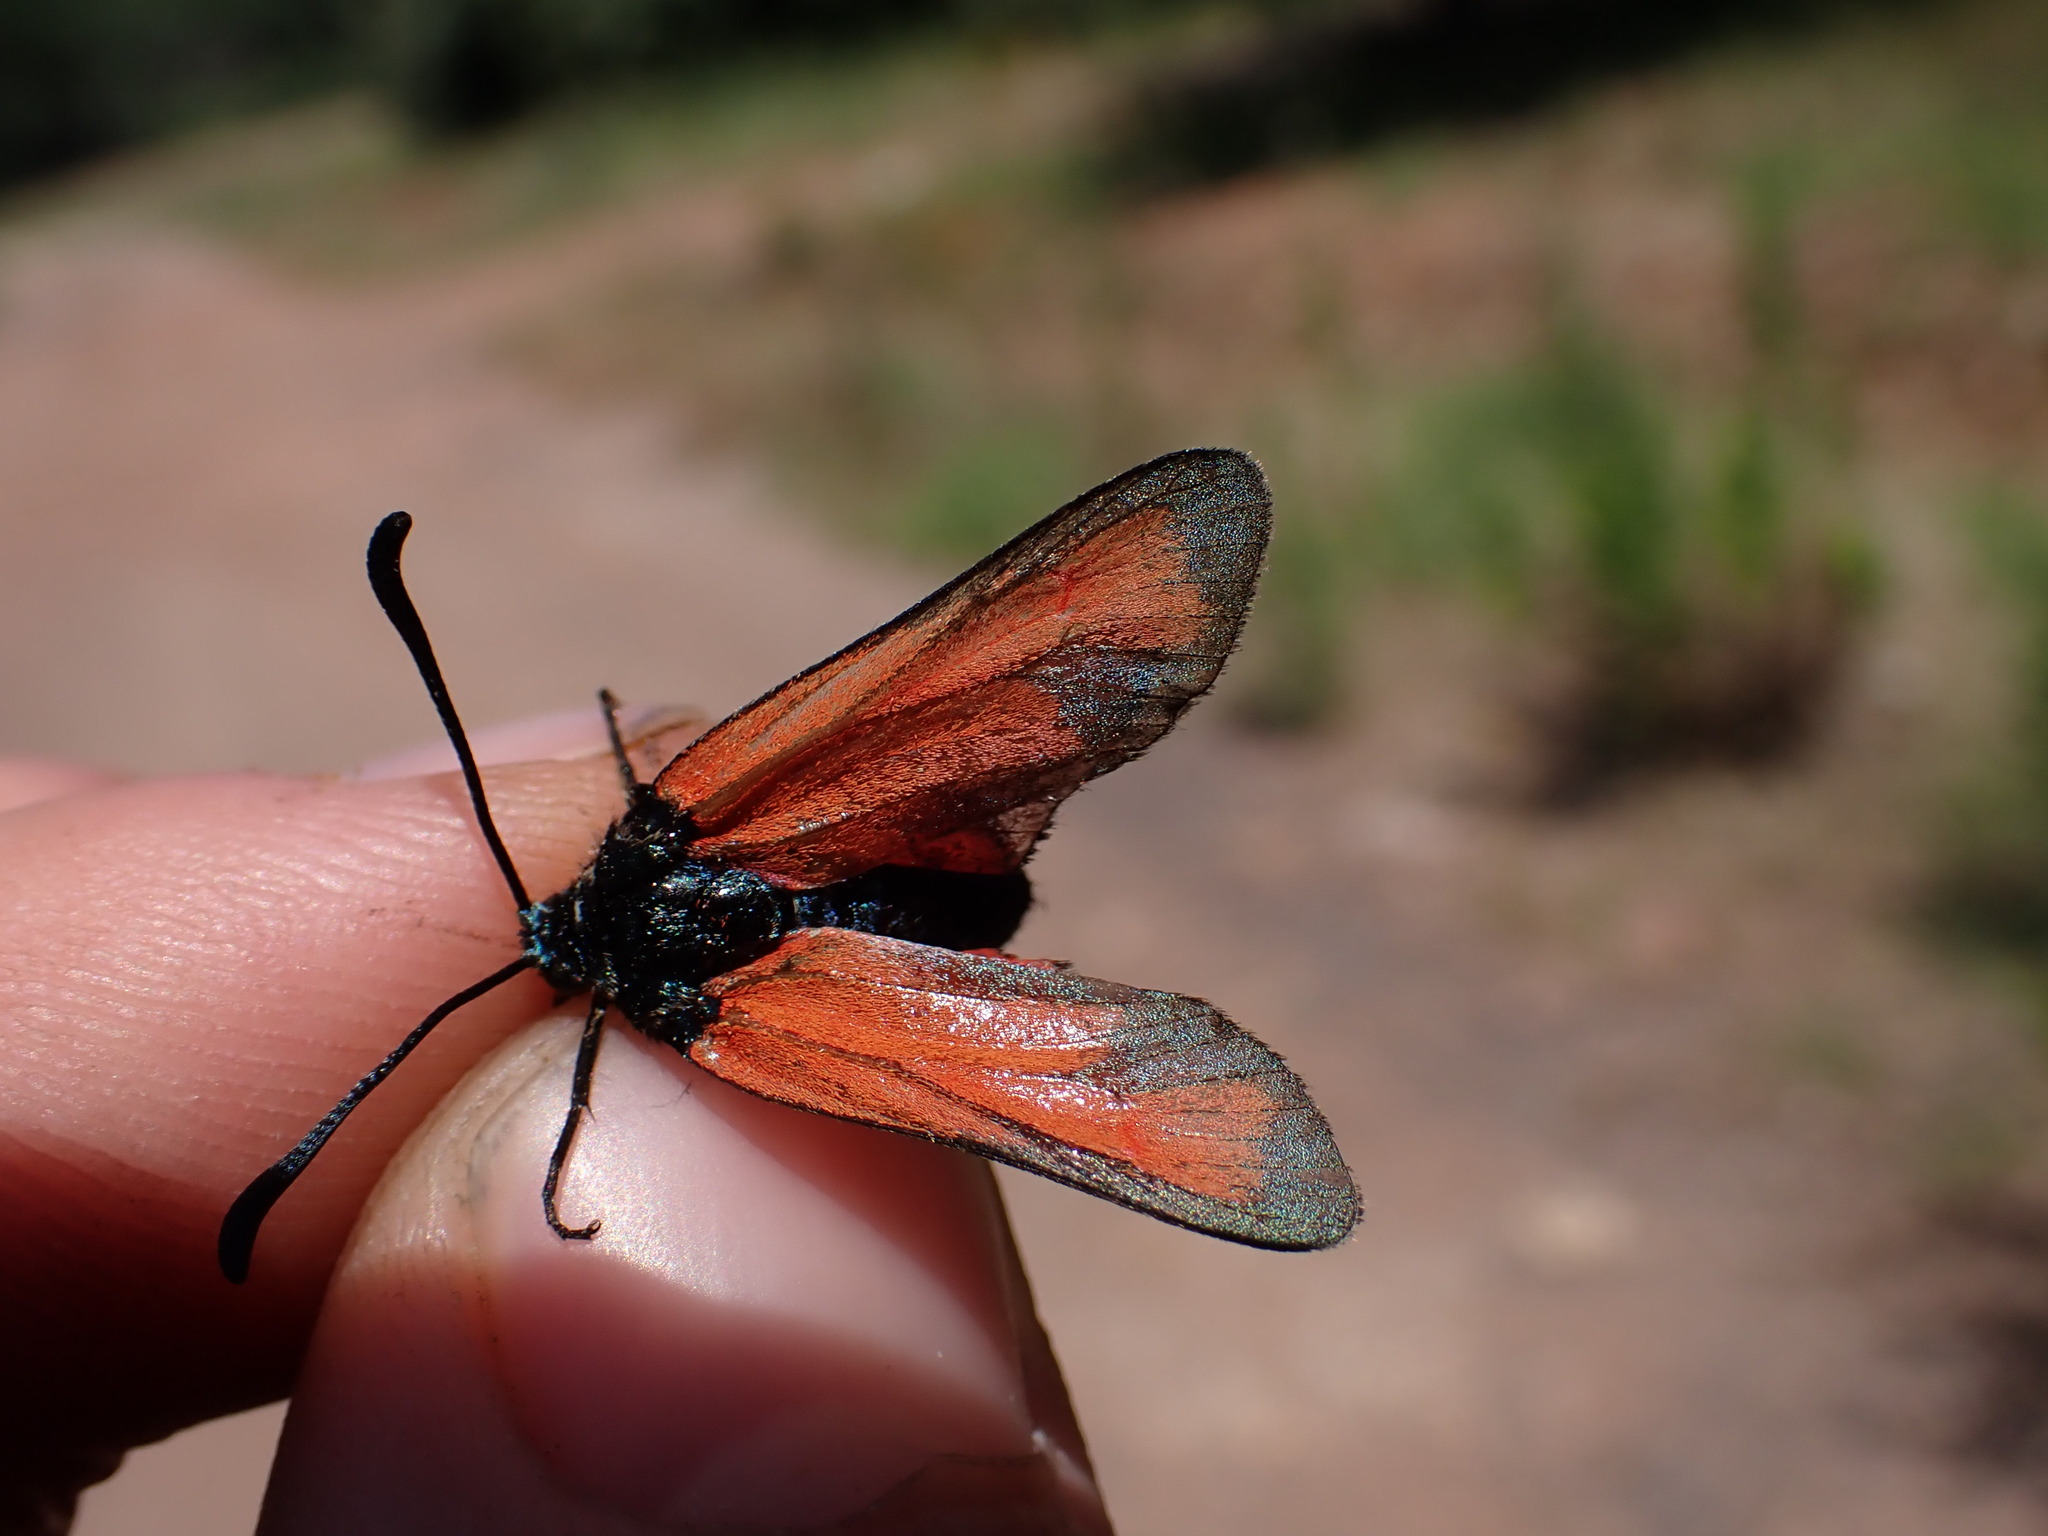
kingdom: Animalia
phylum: Arthropoda
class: Insecta
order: Lepidoptera
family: Zygaenidae
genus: Zygaena
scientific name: Zygaena erythrus
